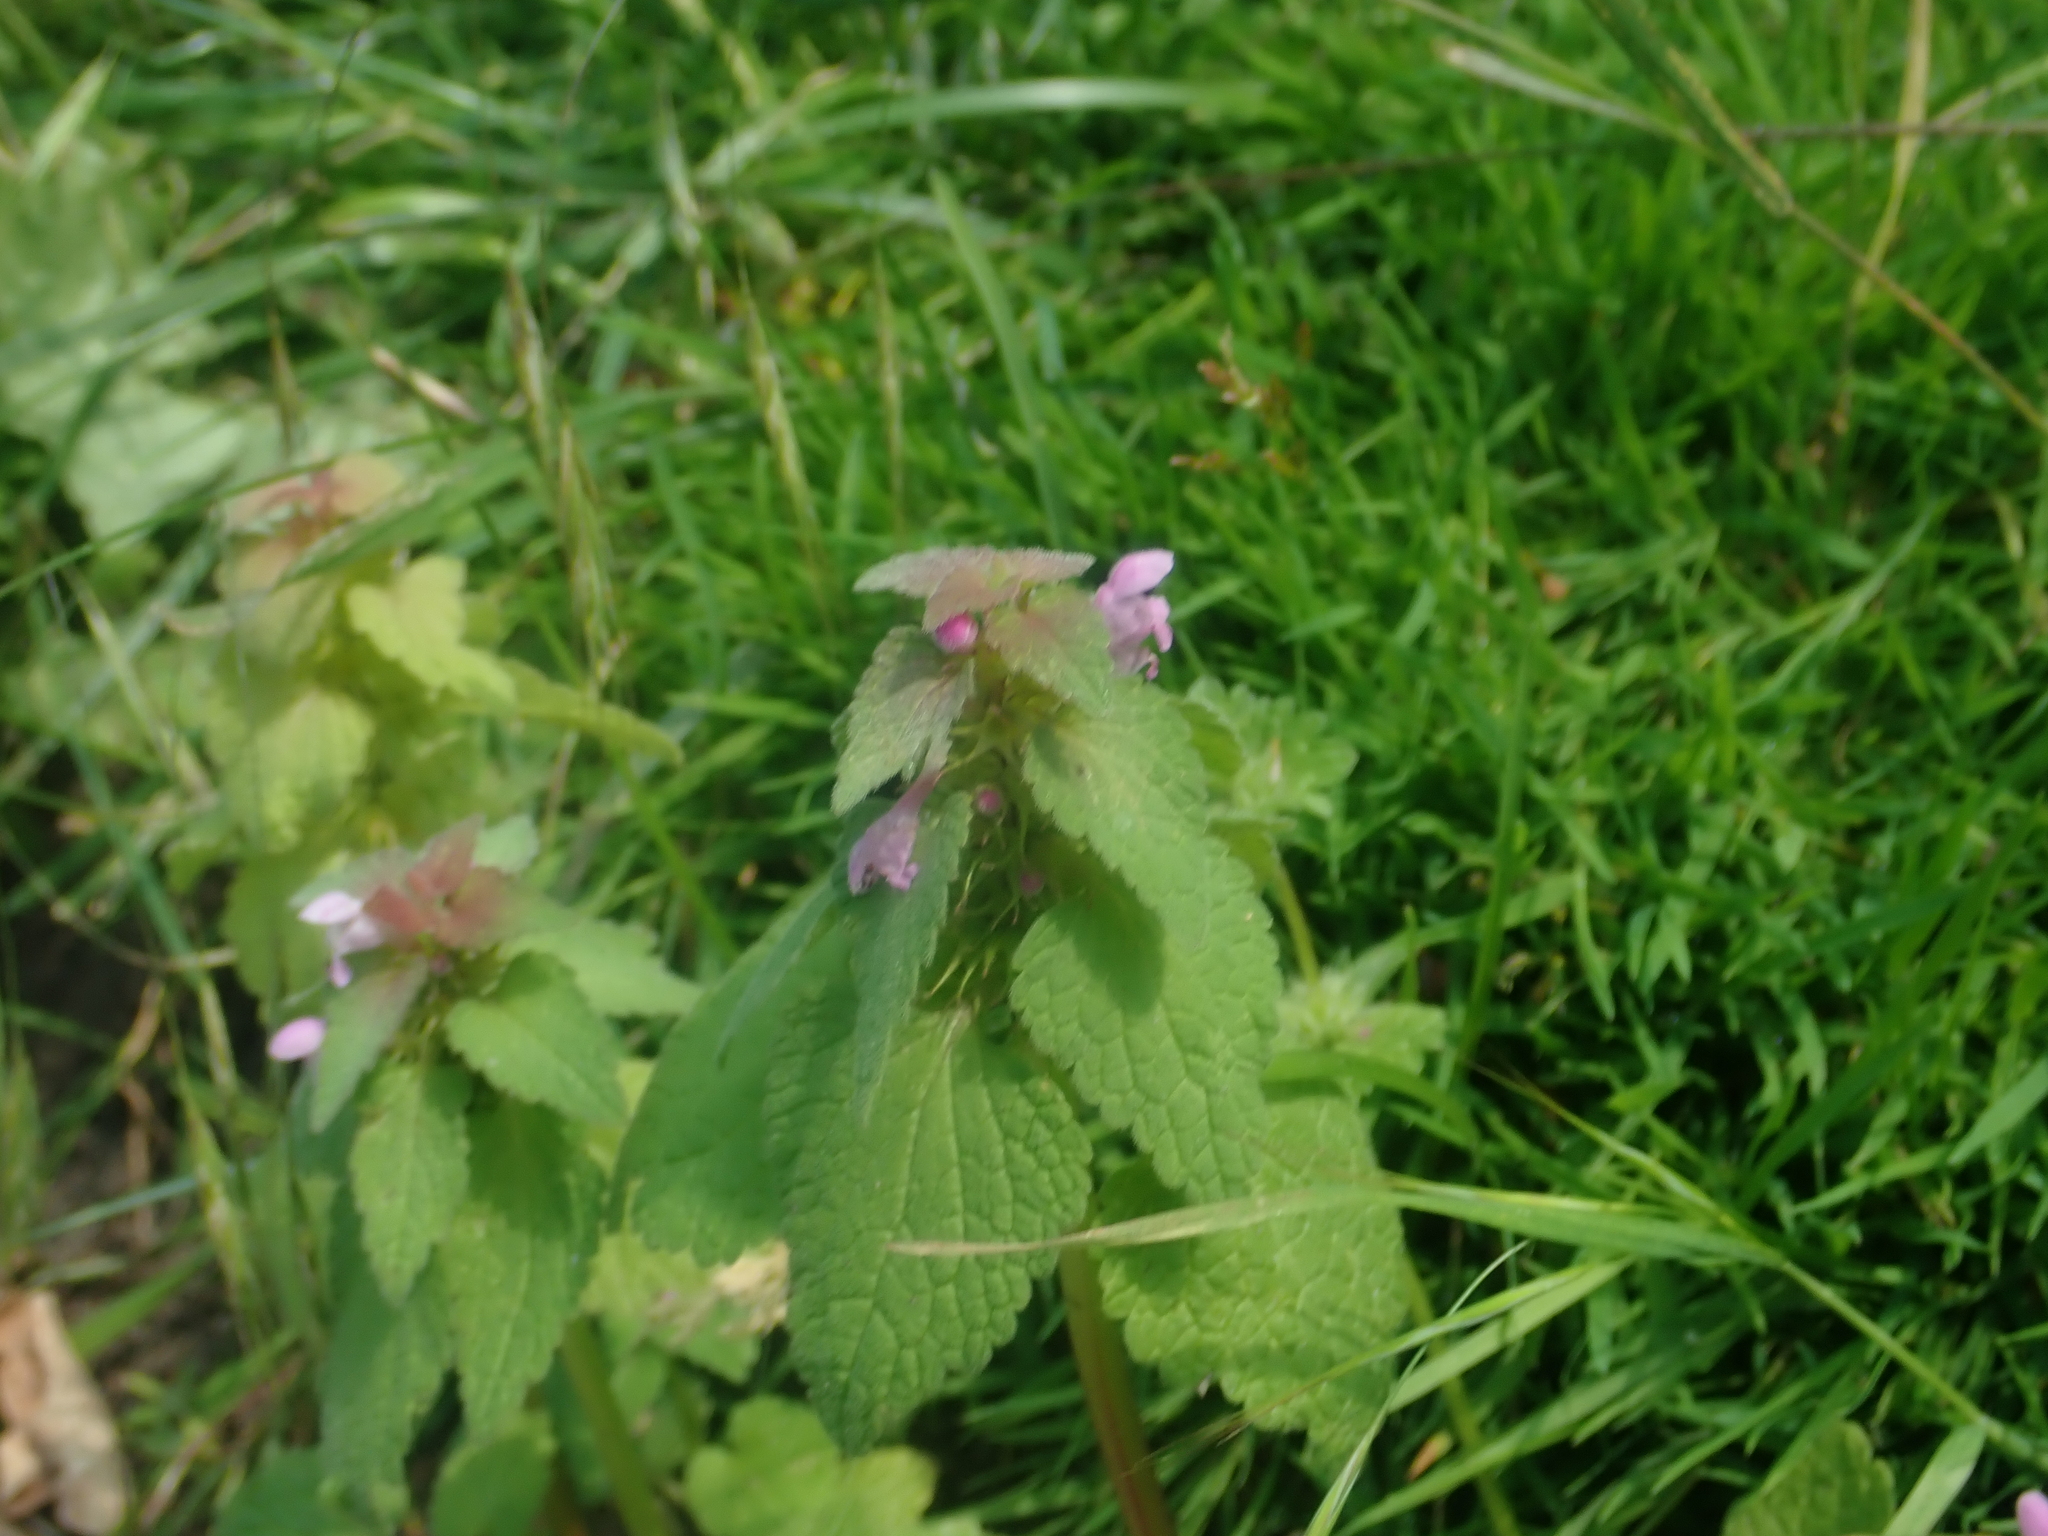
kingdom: Plantae
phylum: Tracheophyta
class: Magnoliopsida
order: Lamiales
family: Lamiaceae
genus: Lamium
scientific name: Lamium purpureum
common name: Red dead-nettle
